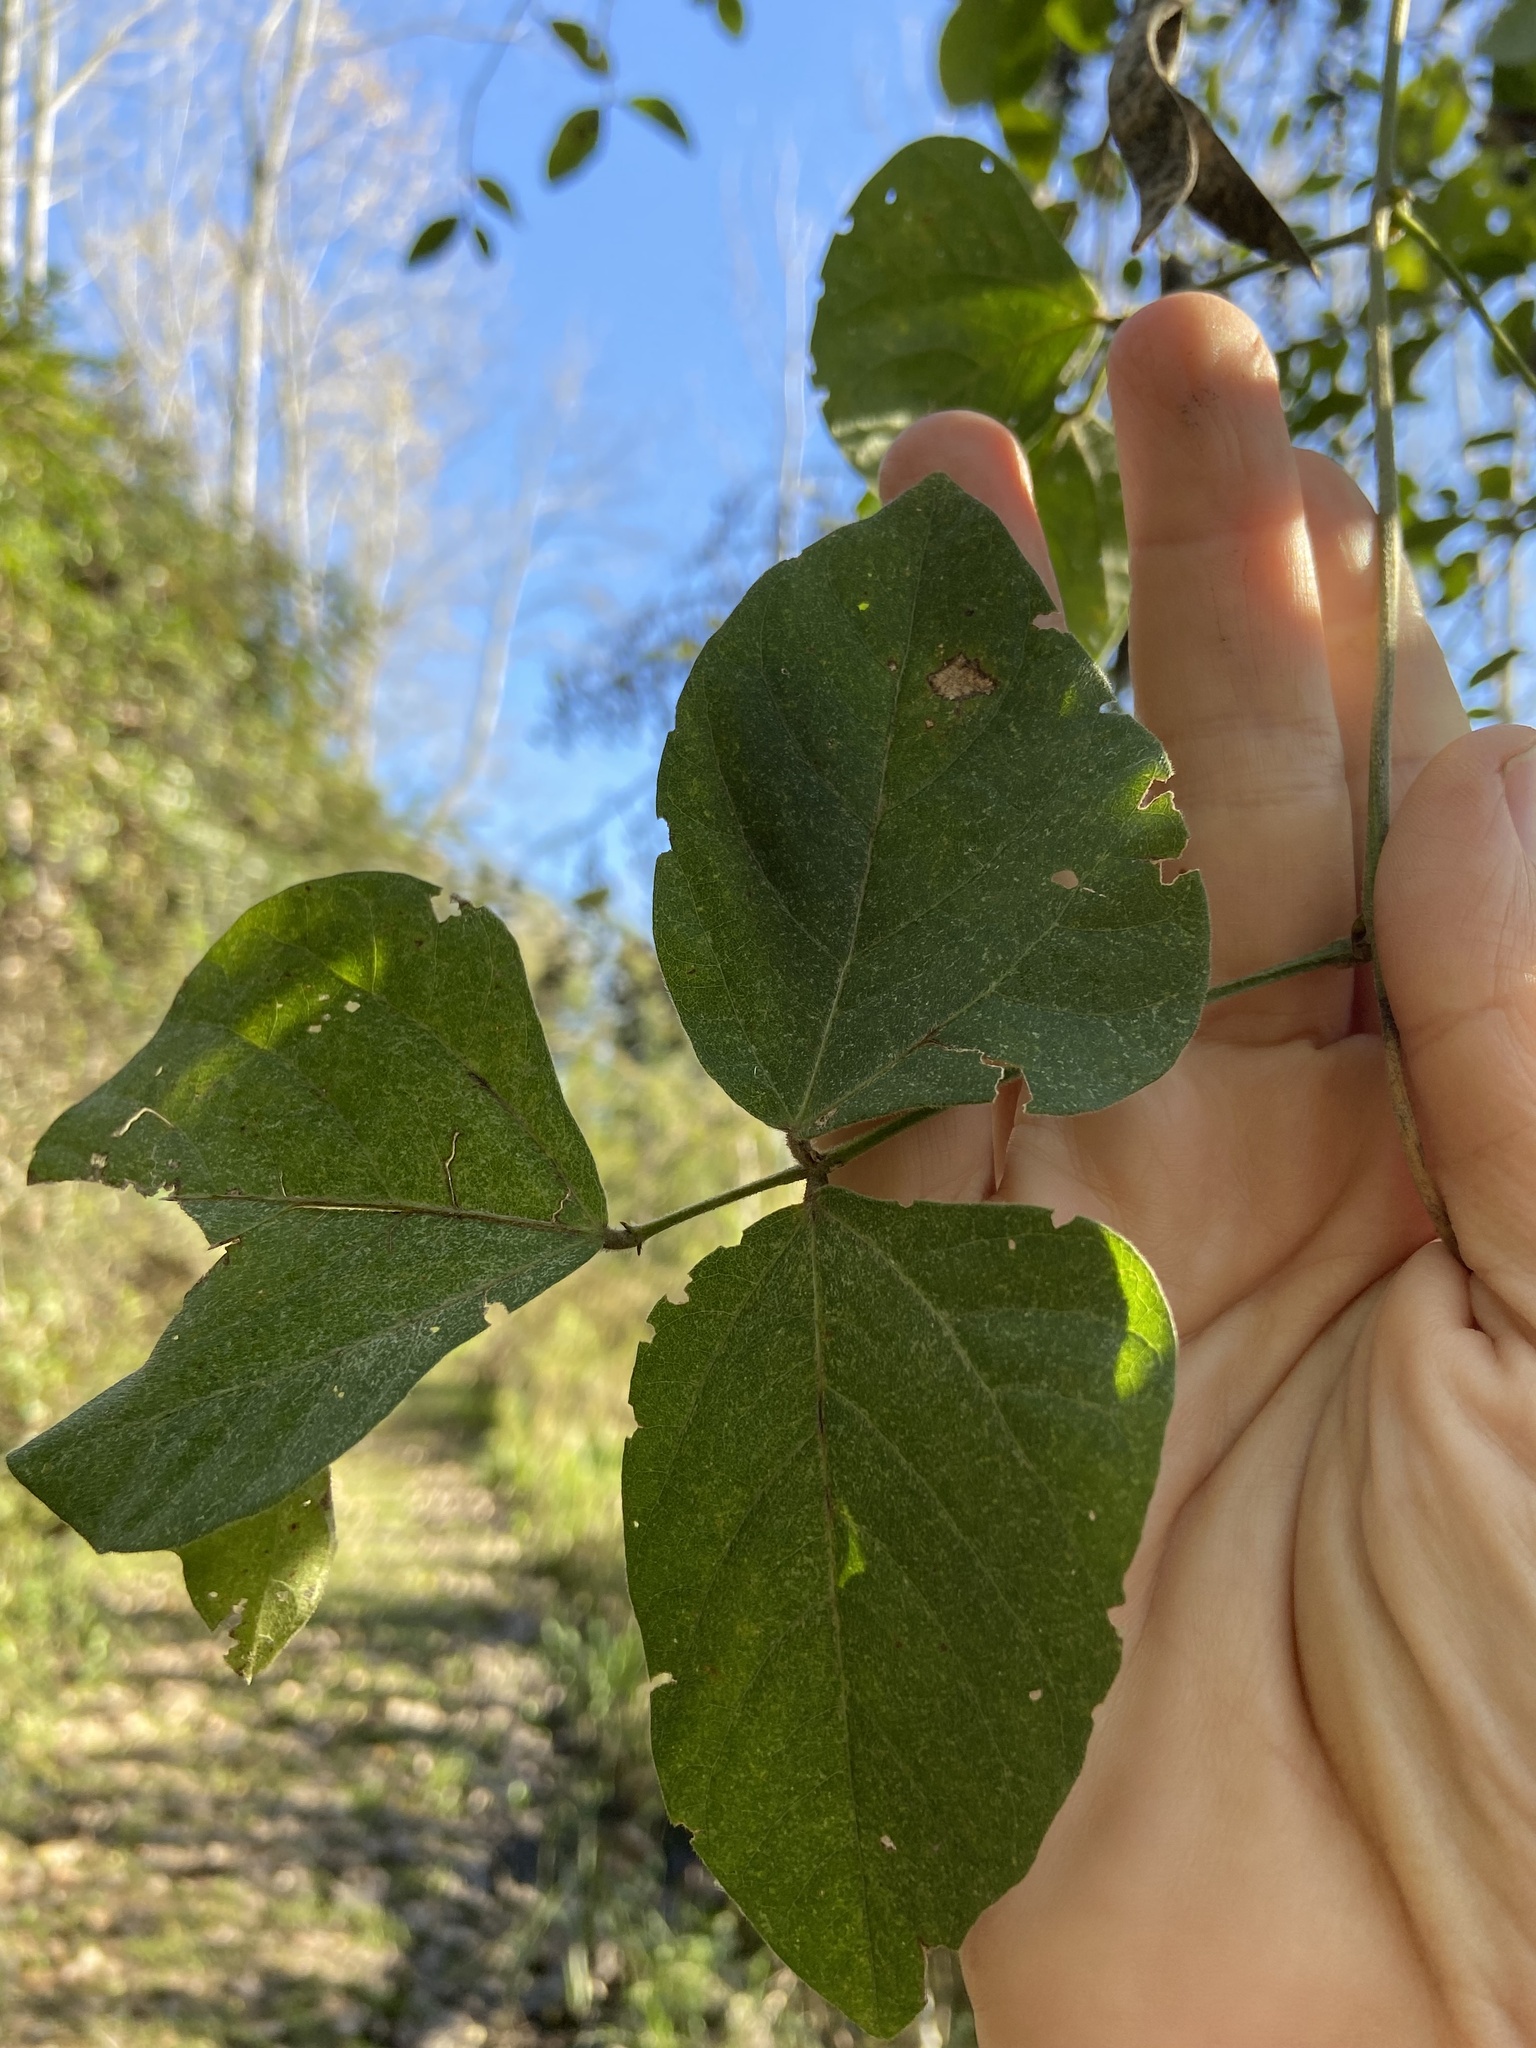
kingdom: Plantae
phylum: Tracheophyta
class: Magnoliopsida
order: Fabales
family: Fabaceae
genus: Leptospron
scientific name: Leptospron adenanthum
